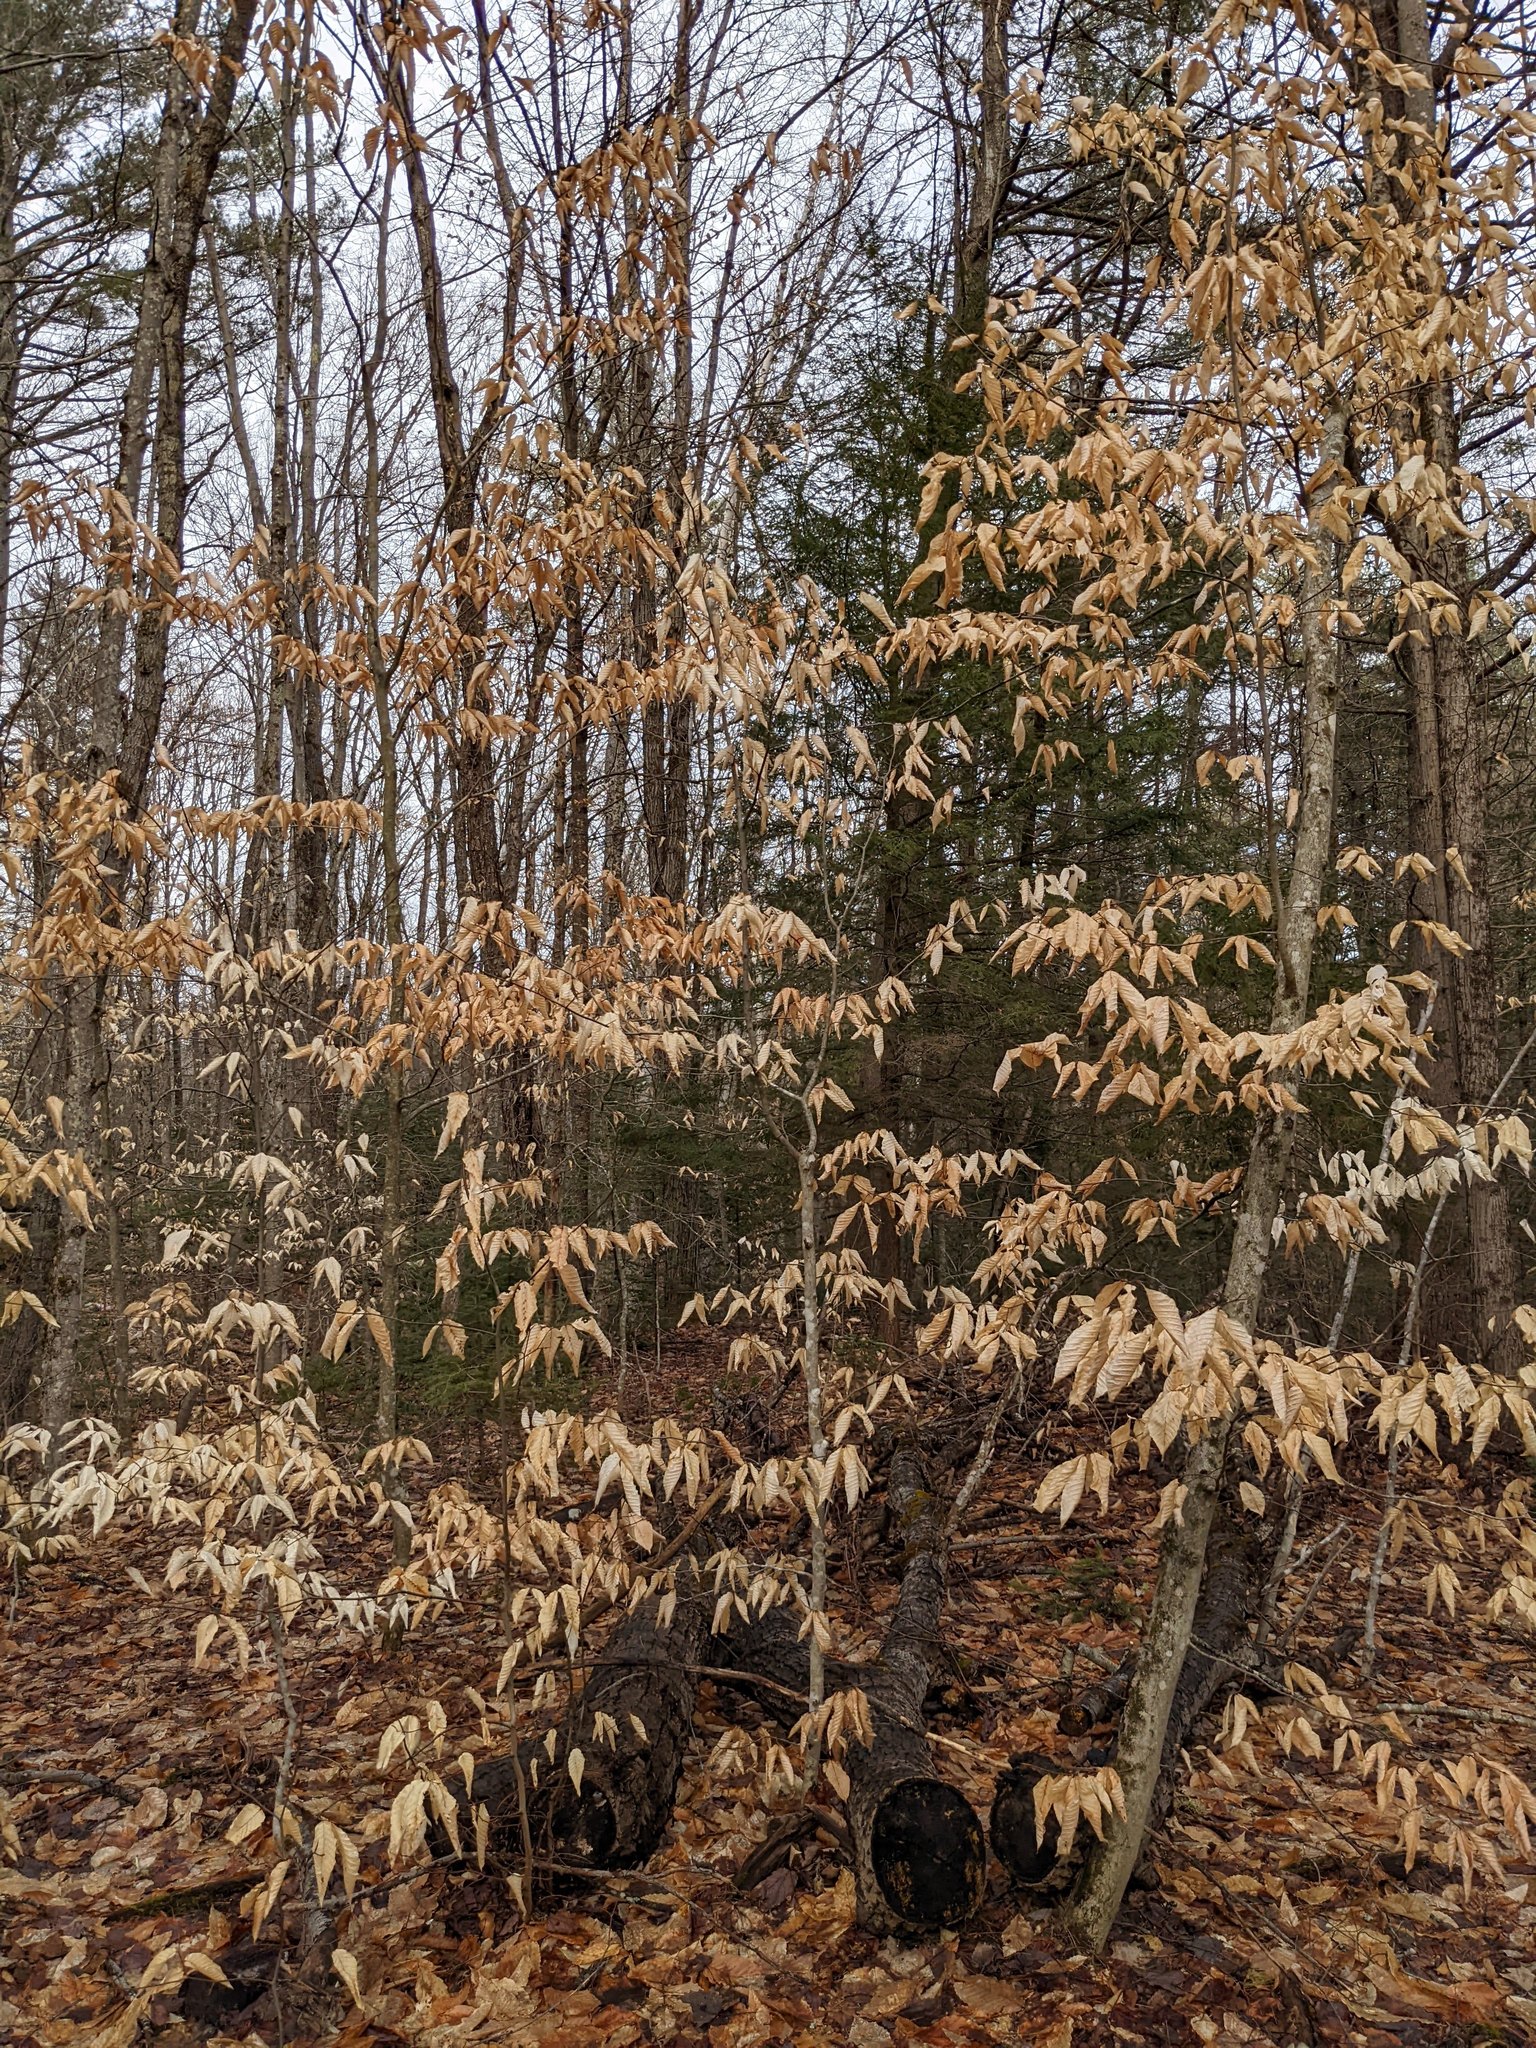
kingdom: Plantae
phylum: Tracheophyta
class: Magnoliopsida
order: Fagales
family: Fagaceae
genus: Fagus
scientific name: Fagus grandifolia
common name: American beech
